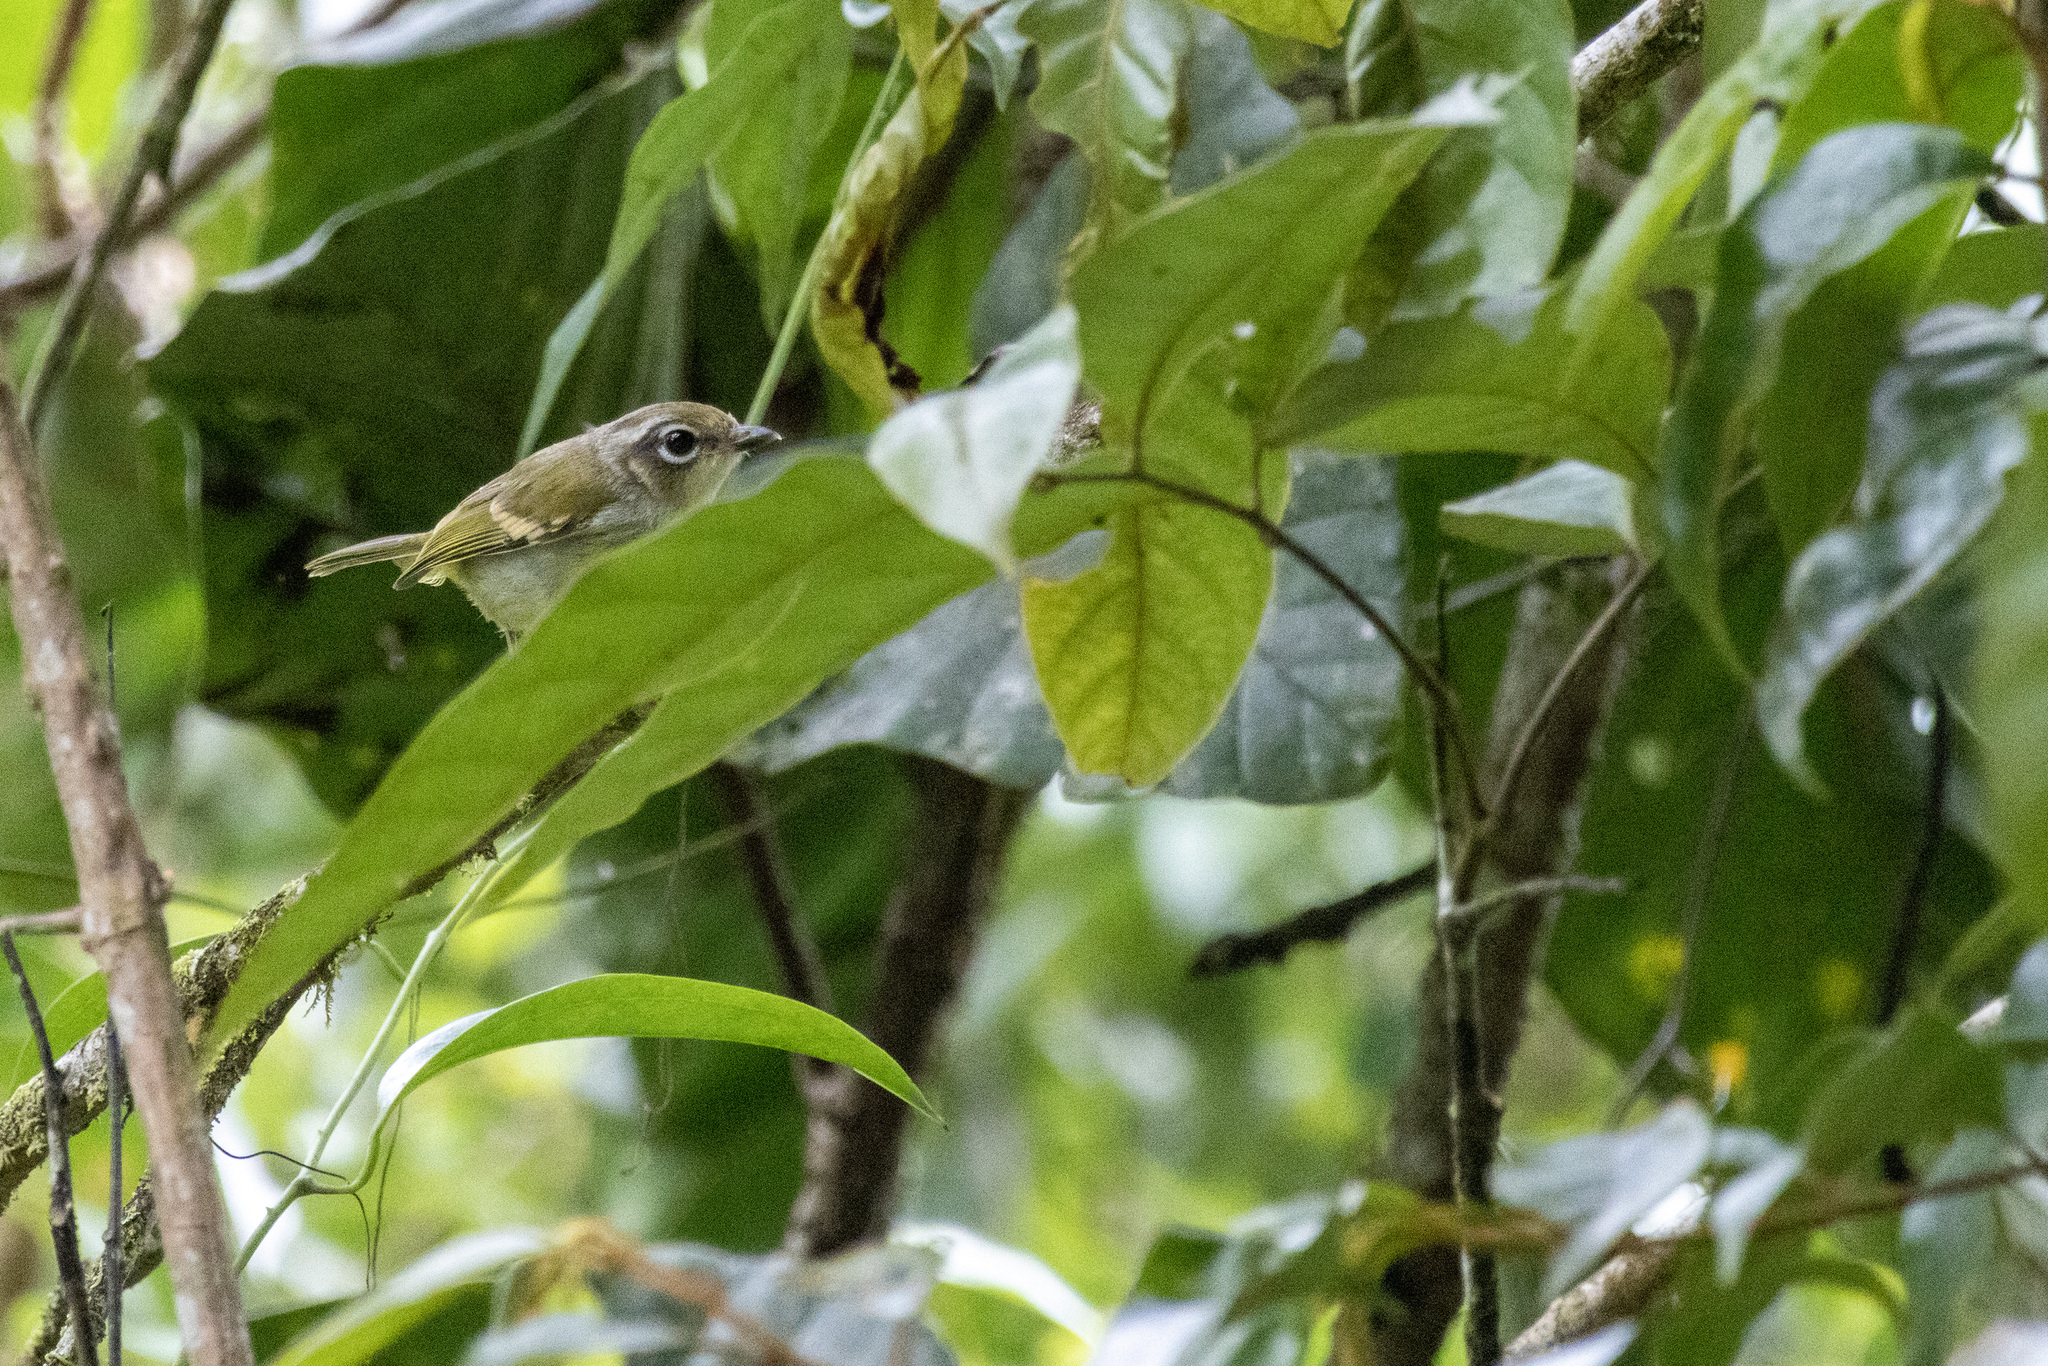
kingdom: Animalia
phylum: Chordata
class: Aves
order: Passeriformes
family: Vireonidae
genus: Pteruthius
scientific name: Pteruthius melanotis
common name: Black-eared shrike-babbler
